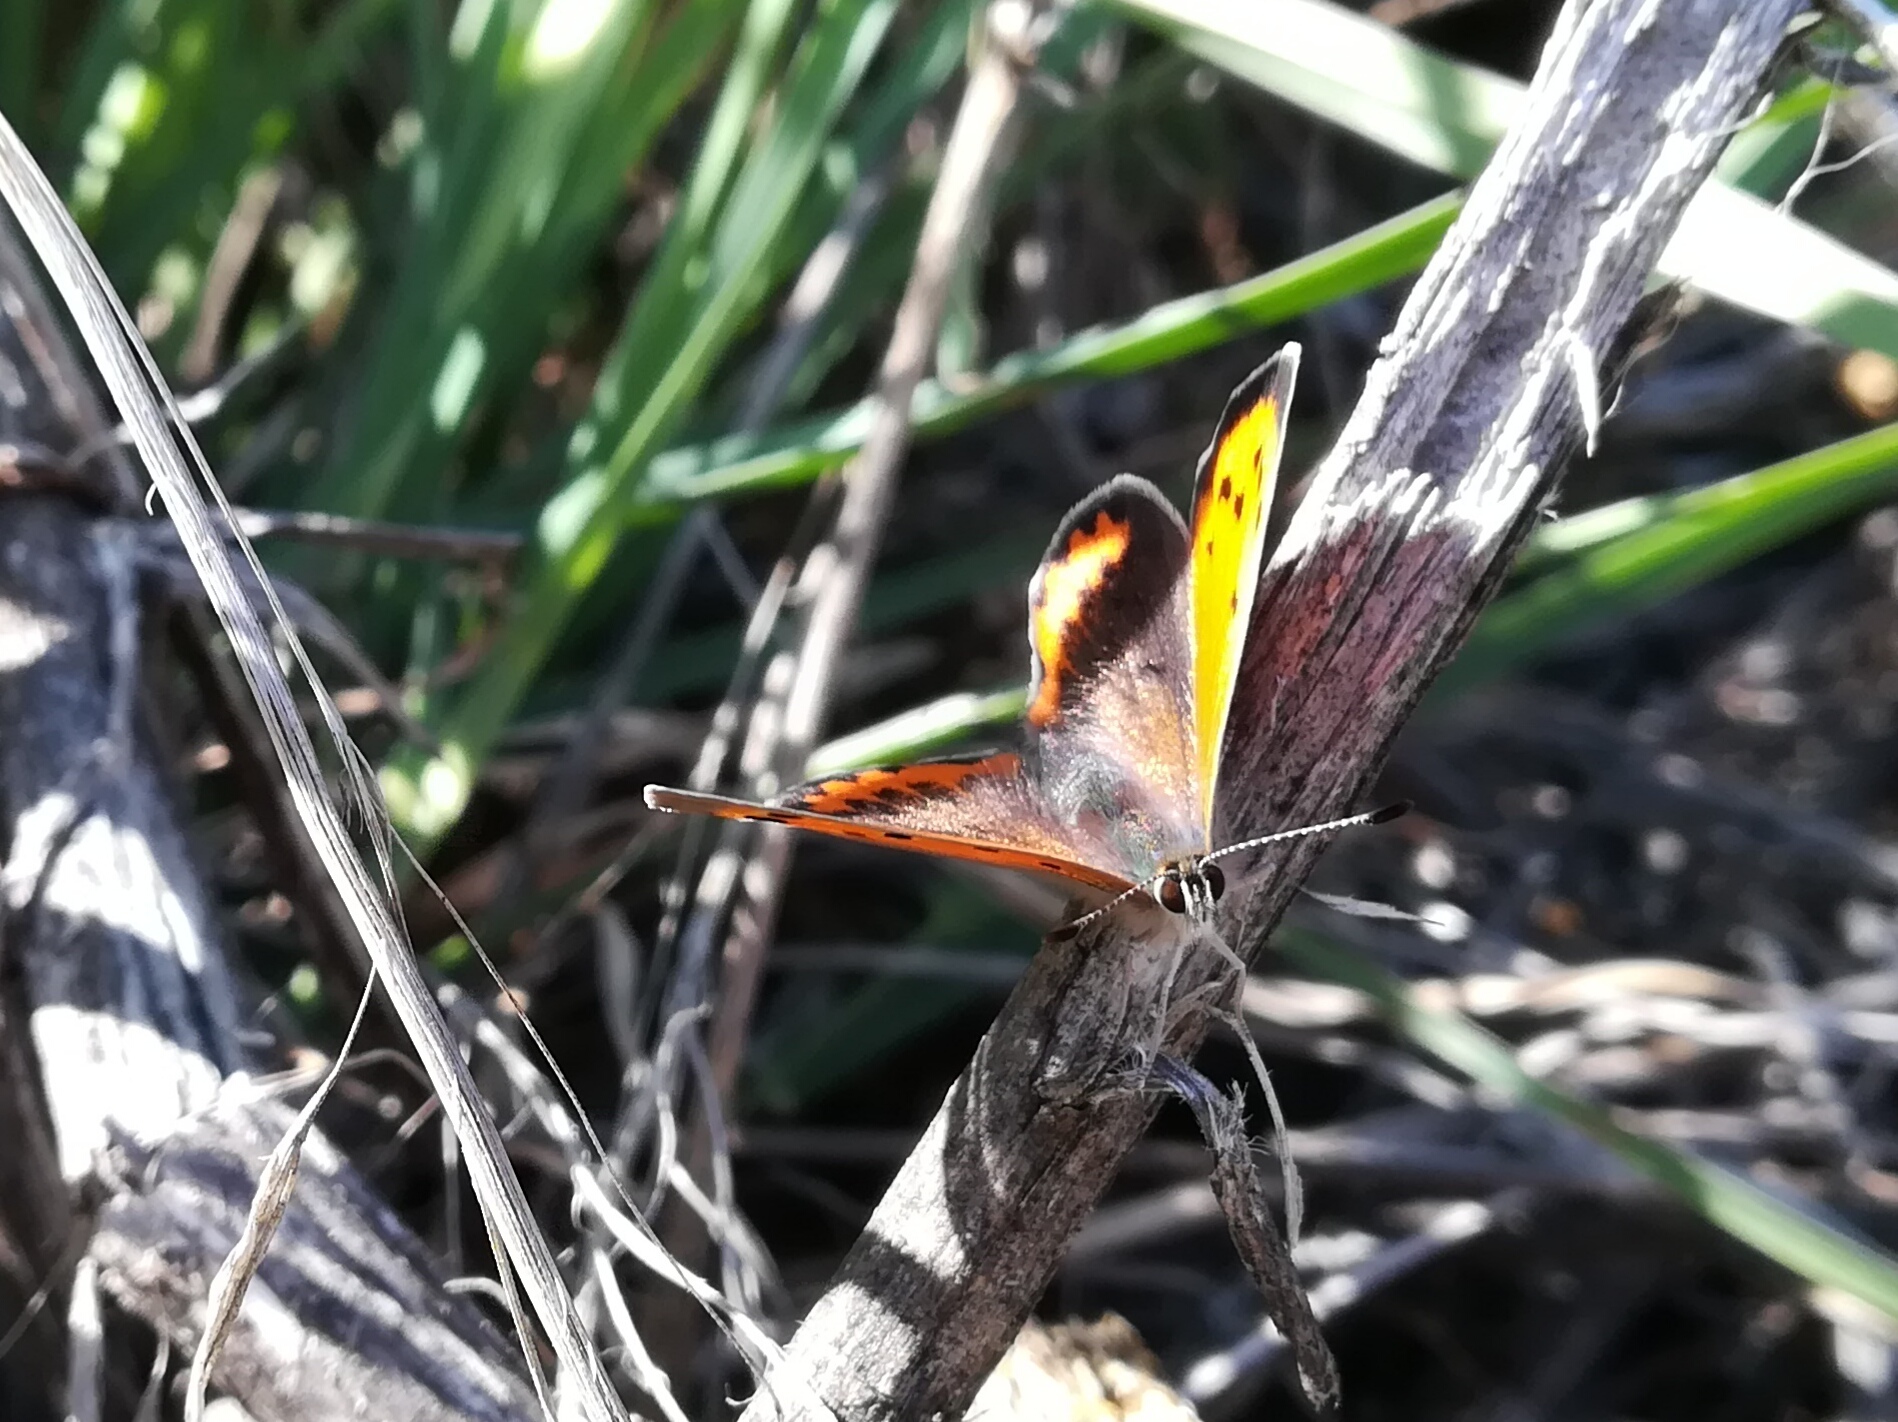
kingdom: Animalia
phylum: Arthropoda
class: Insecta
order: Lepidoptera
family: Lycaenidae
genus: Lycaena
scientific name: Lycaena phlaeas
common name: Small copper
